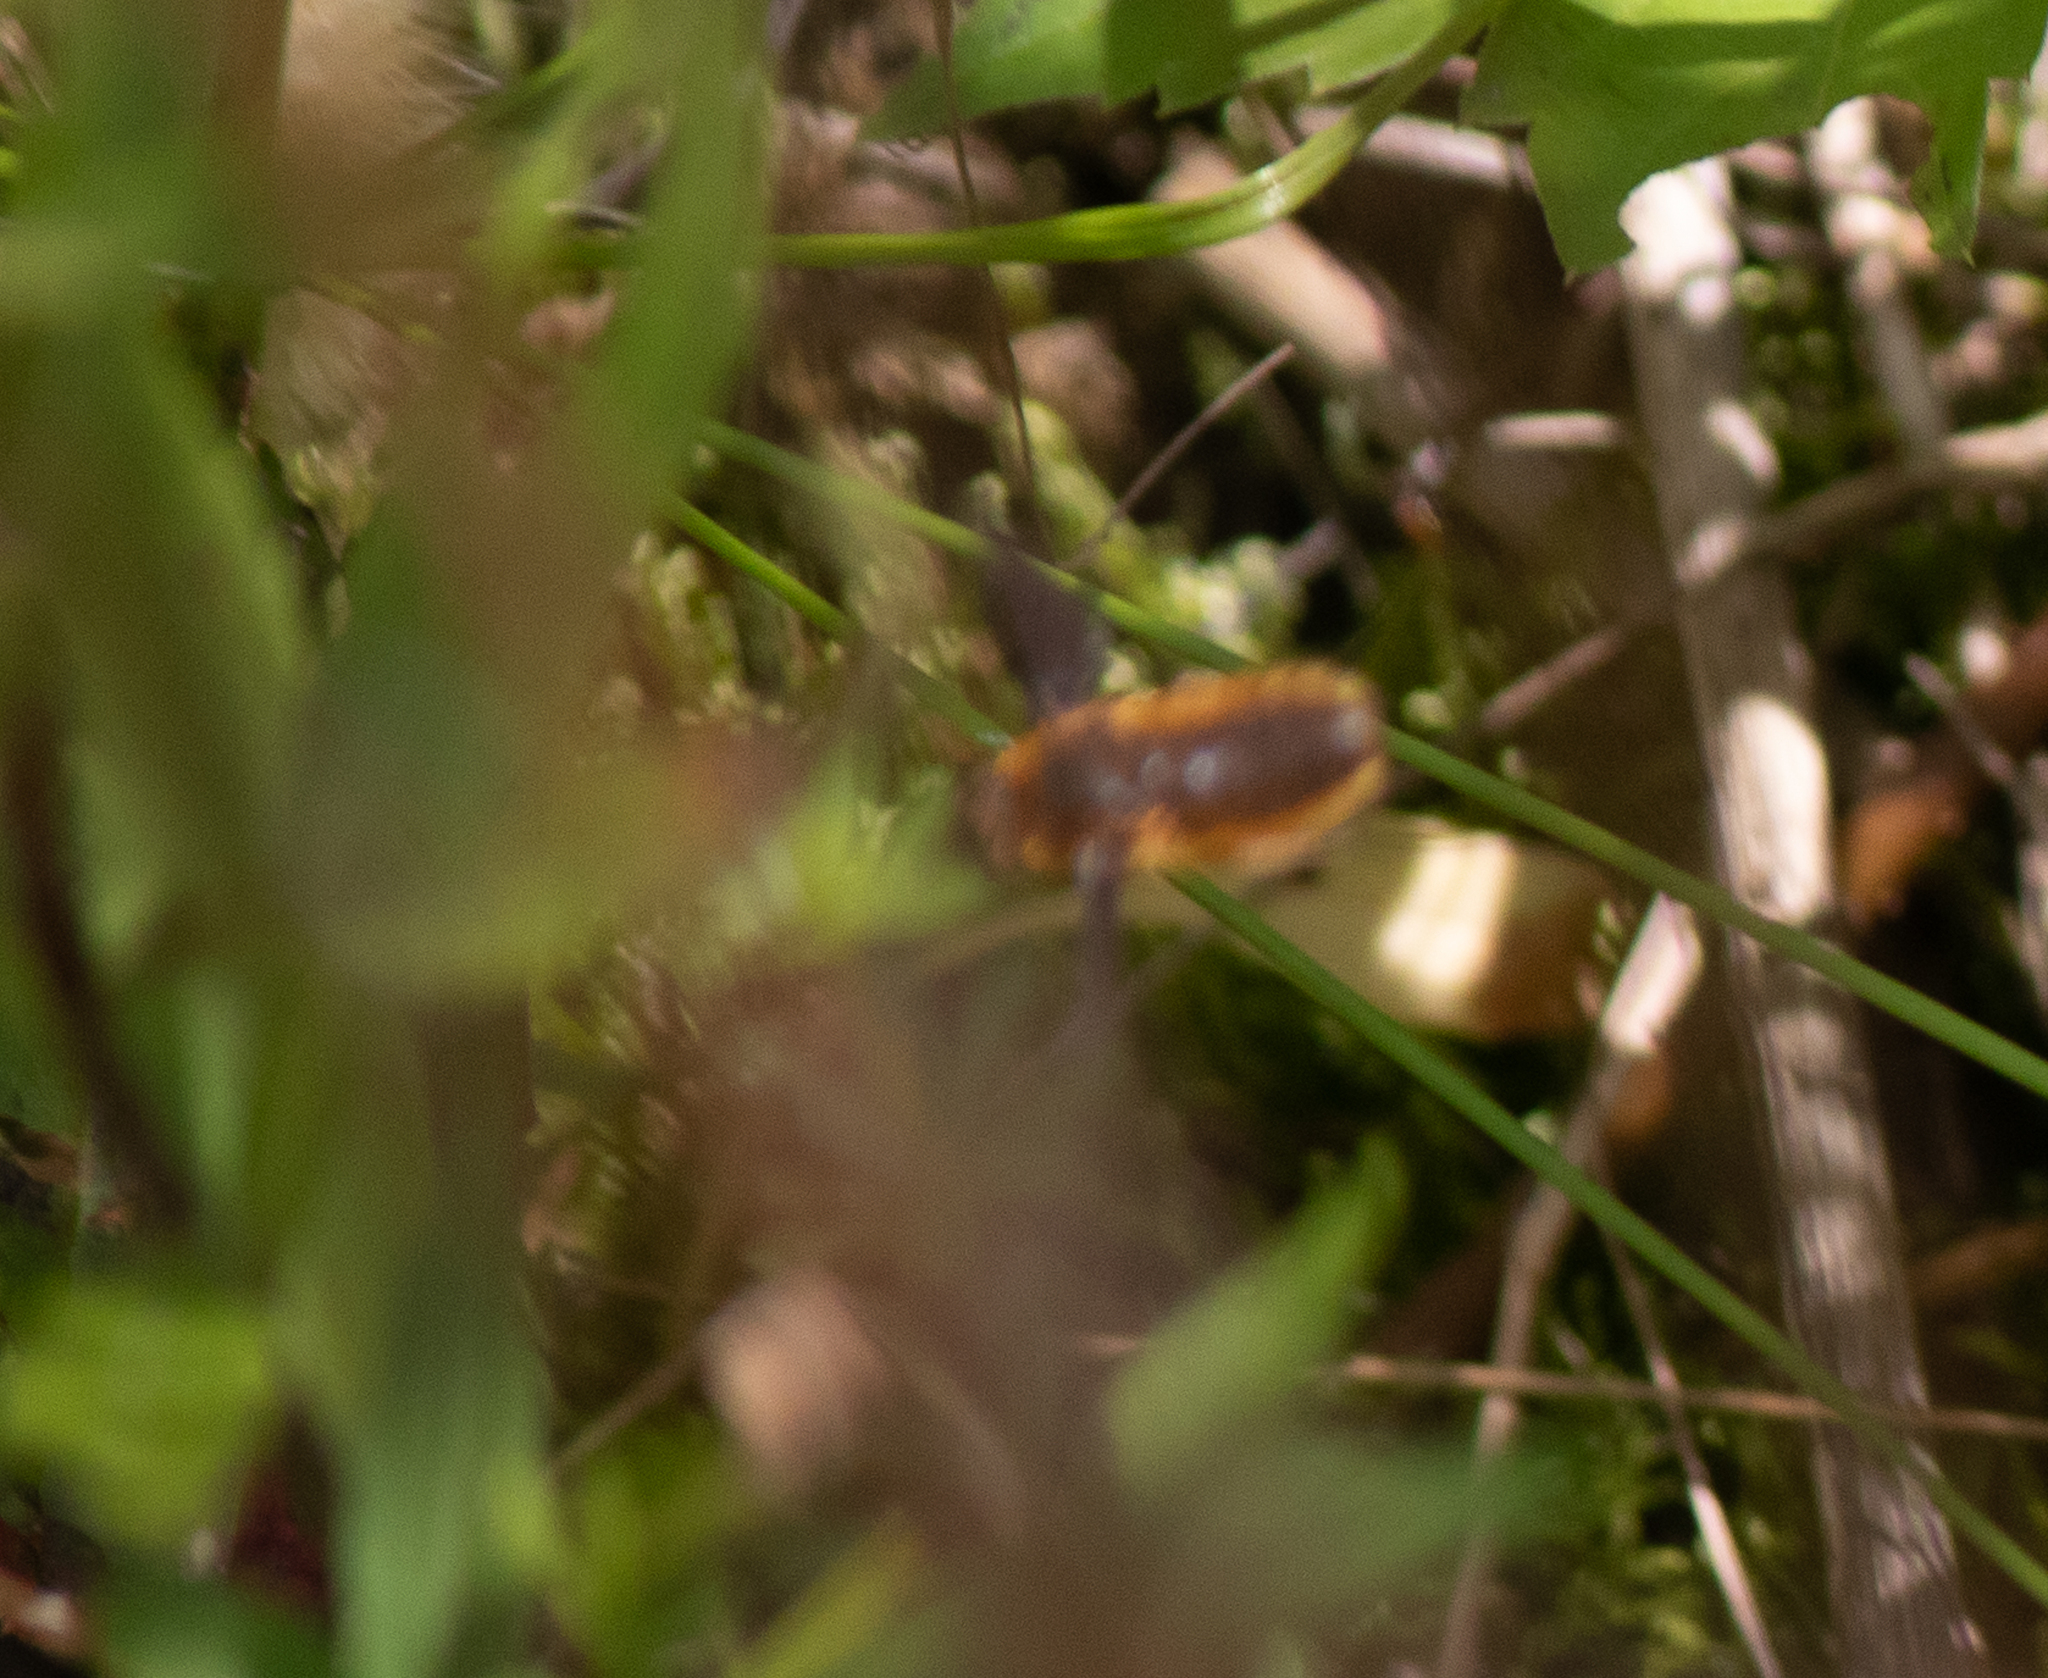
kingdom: Animalia
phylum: Arthropoda
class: Insecta
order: Diptera
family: Bombyliidae
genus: Poecilanthrax
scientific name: Poecilanthrax tegminipennis
